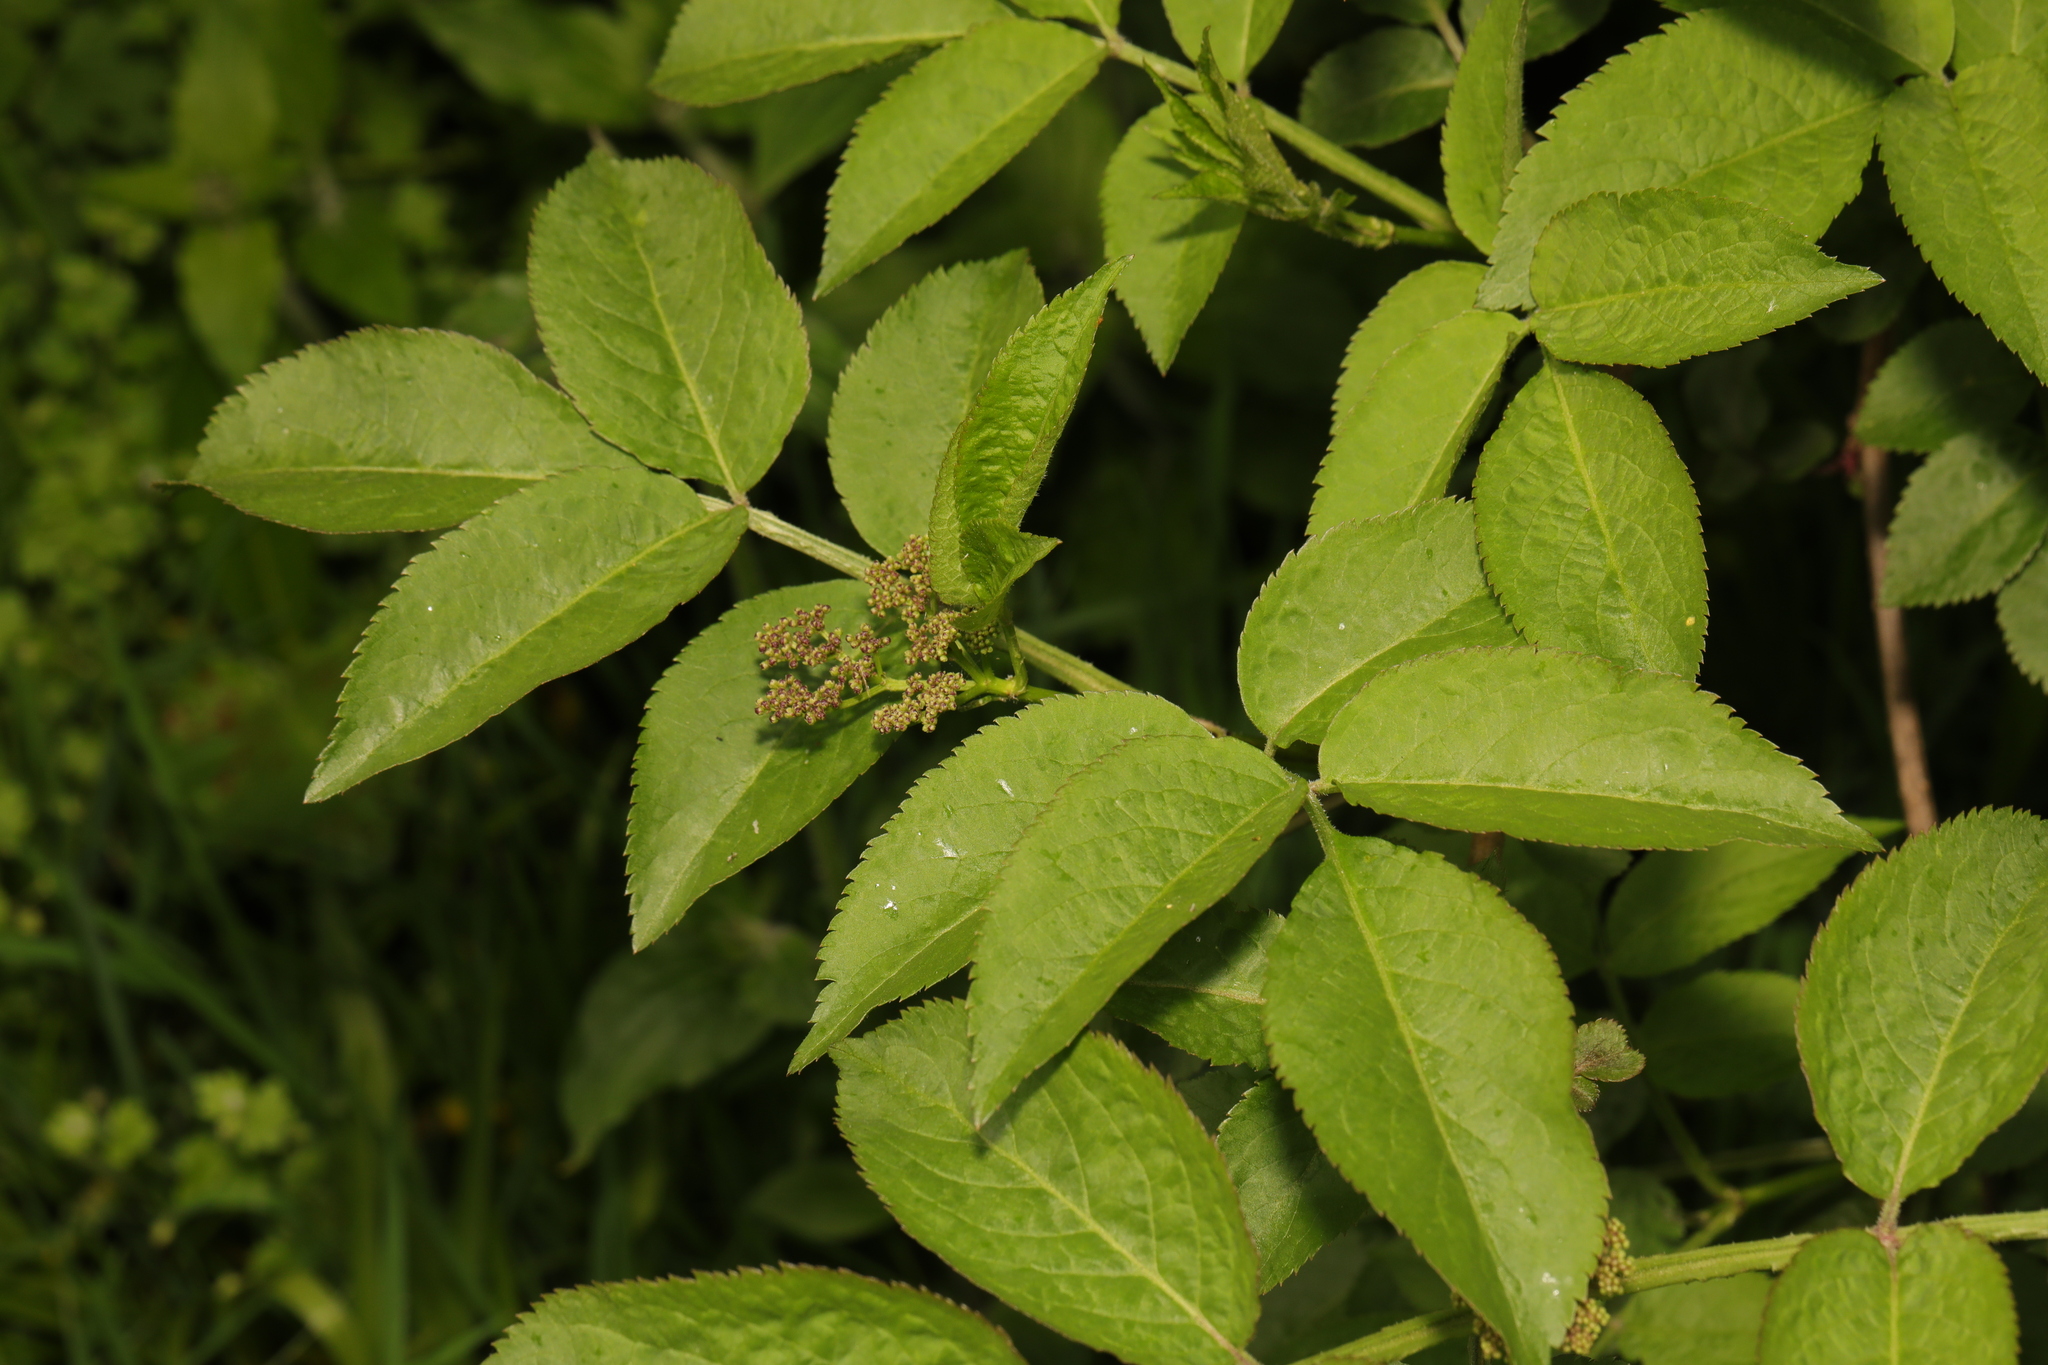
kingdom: Plantae
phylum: Tracheophyta
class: Magnoliopsida
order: Dipsacales
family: Viburnaceae
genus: Sambucus
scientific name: Sambucus nigra
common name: Elder
